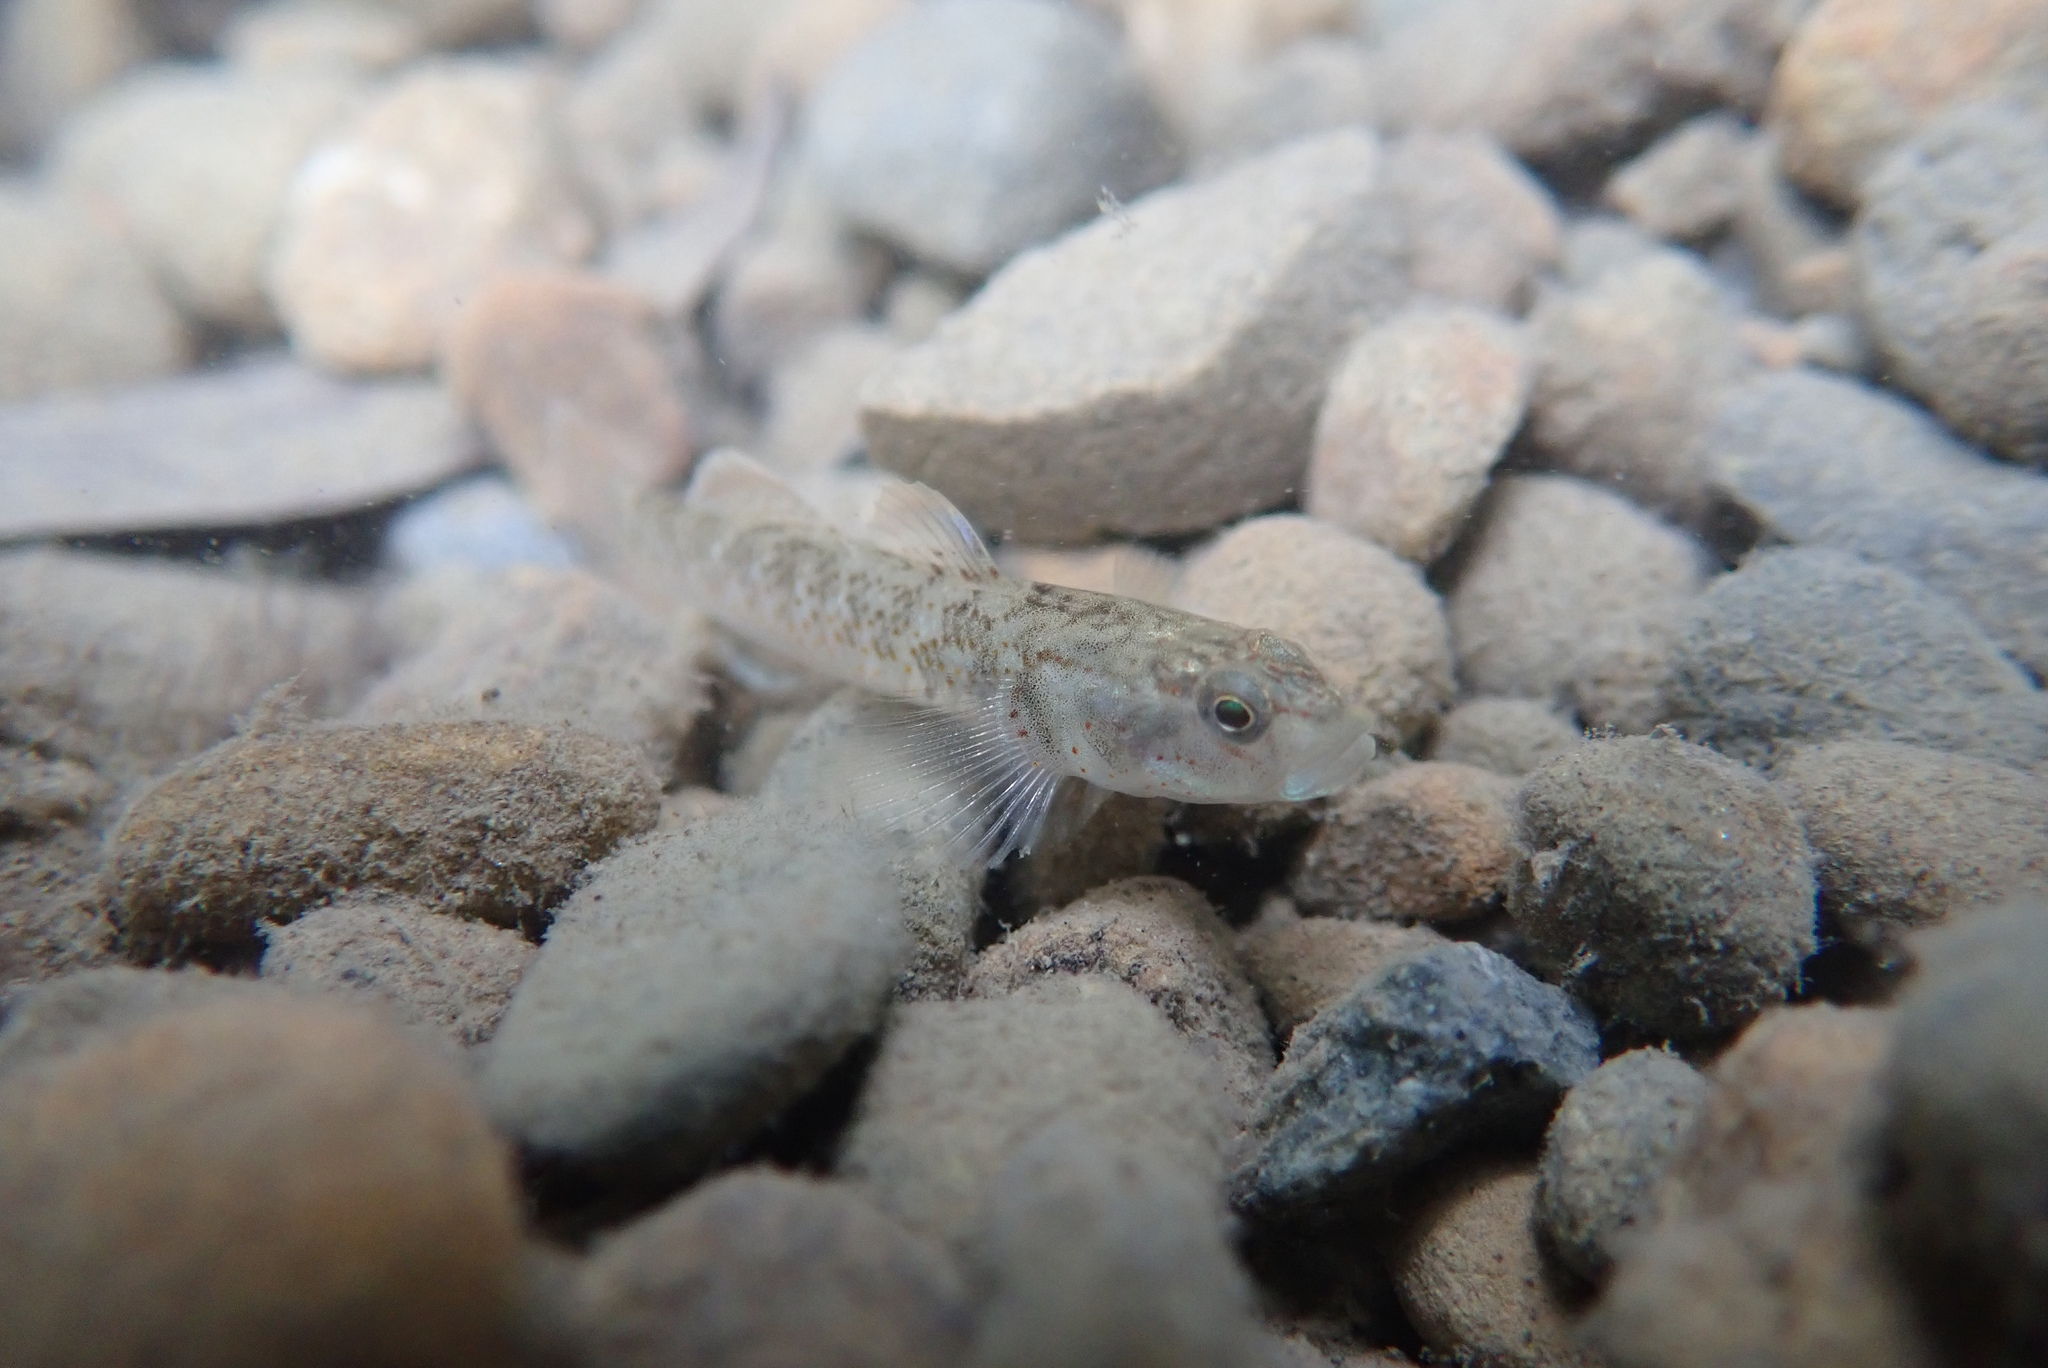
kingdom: Animalia
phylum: Chordata
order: Perciformes
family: Gobiidae
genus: Rhinogobius
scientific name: Rhinogobius rubromaculatus
